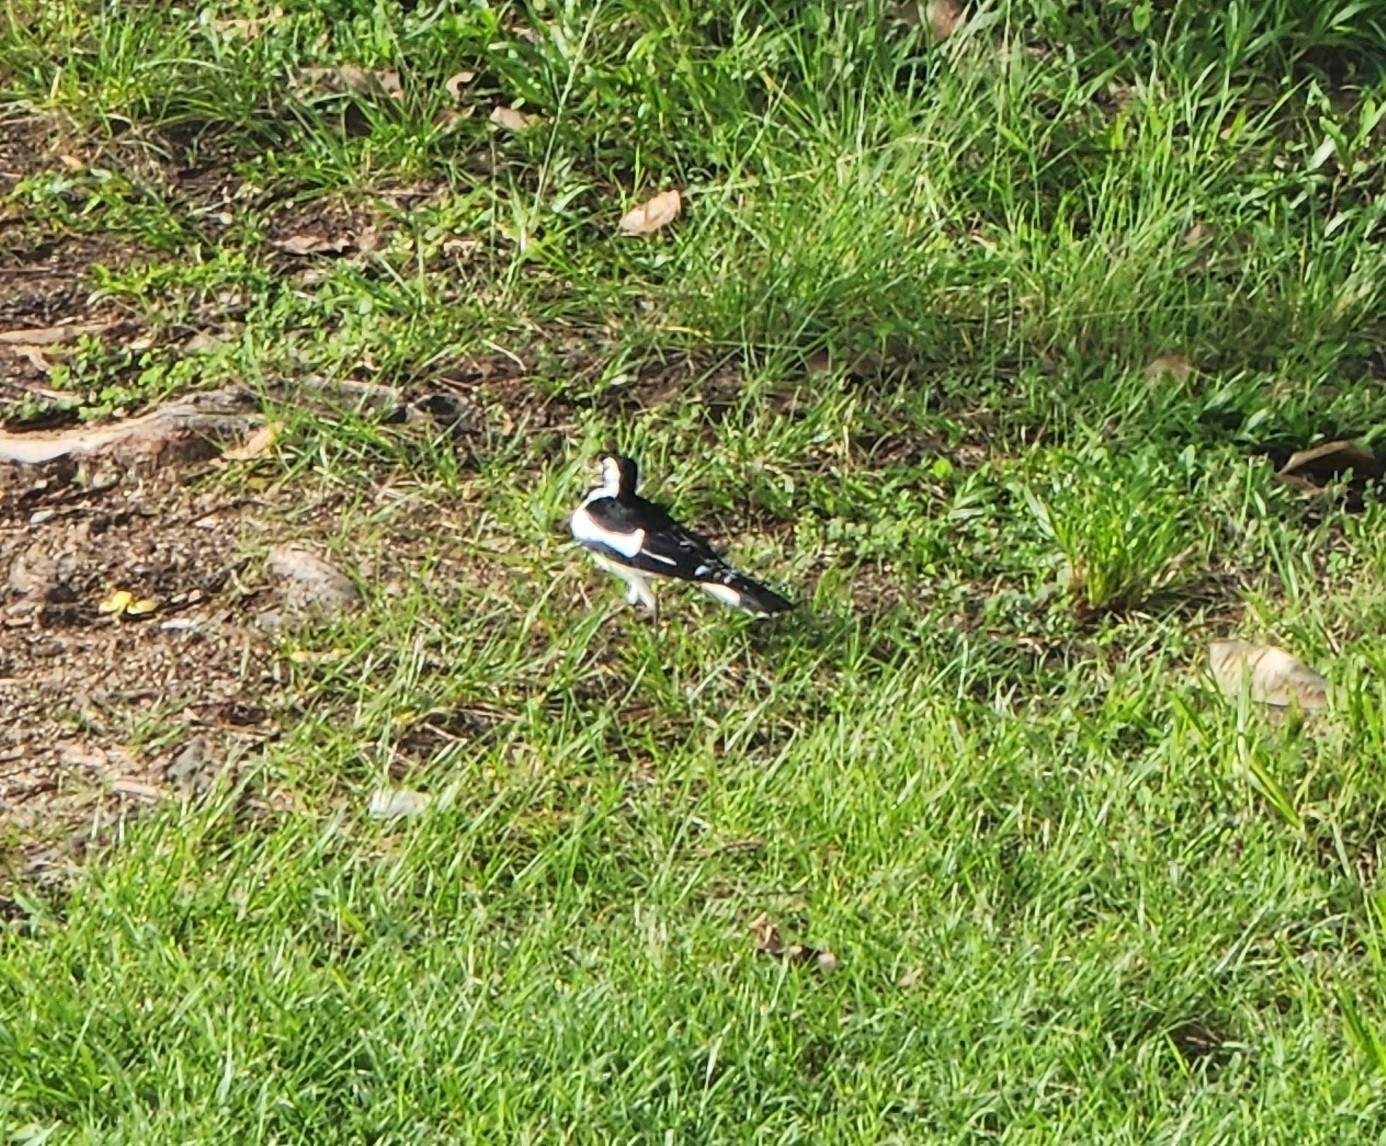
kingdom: Animalia
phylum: Chordata
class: Aves
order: Passeriformes
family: Monarchidae
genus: Grallina
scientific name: Grallina cyanoleuca
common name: Magpie-lark
